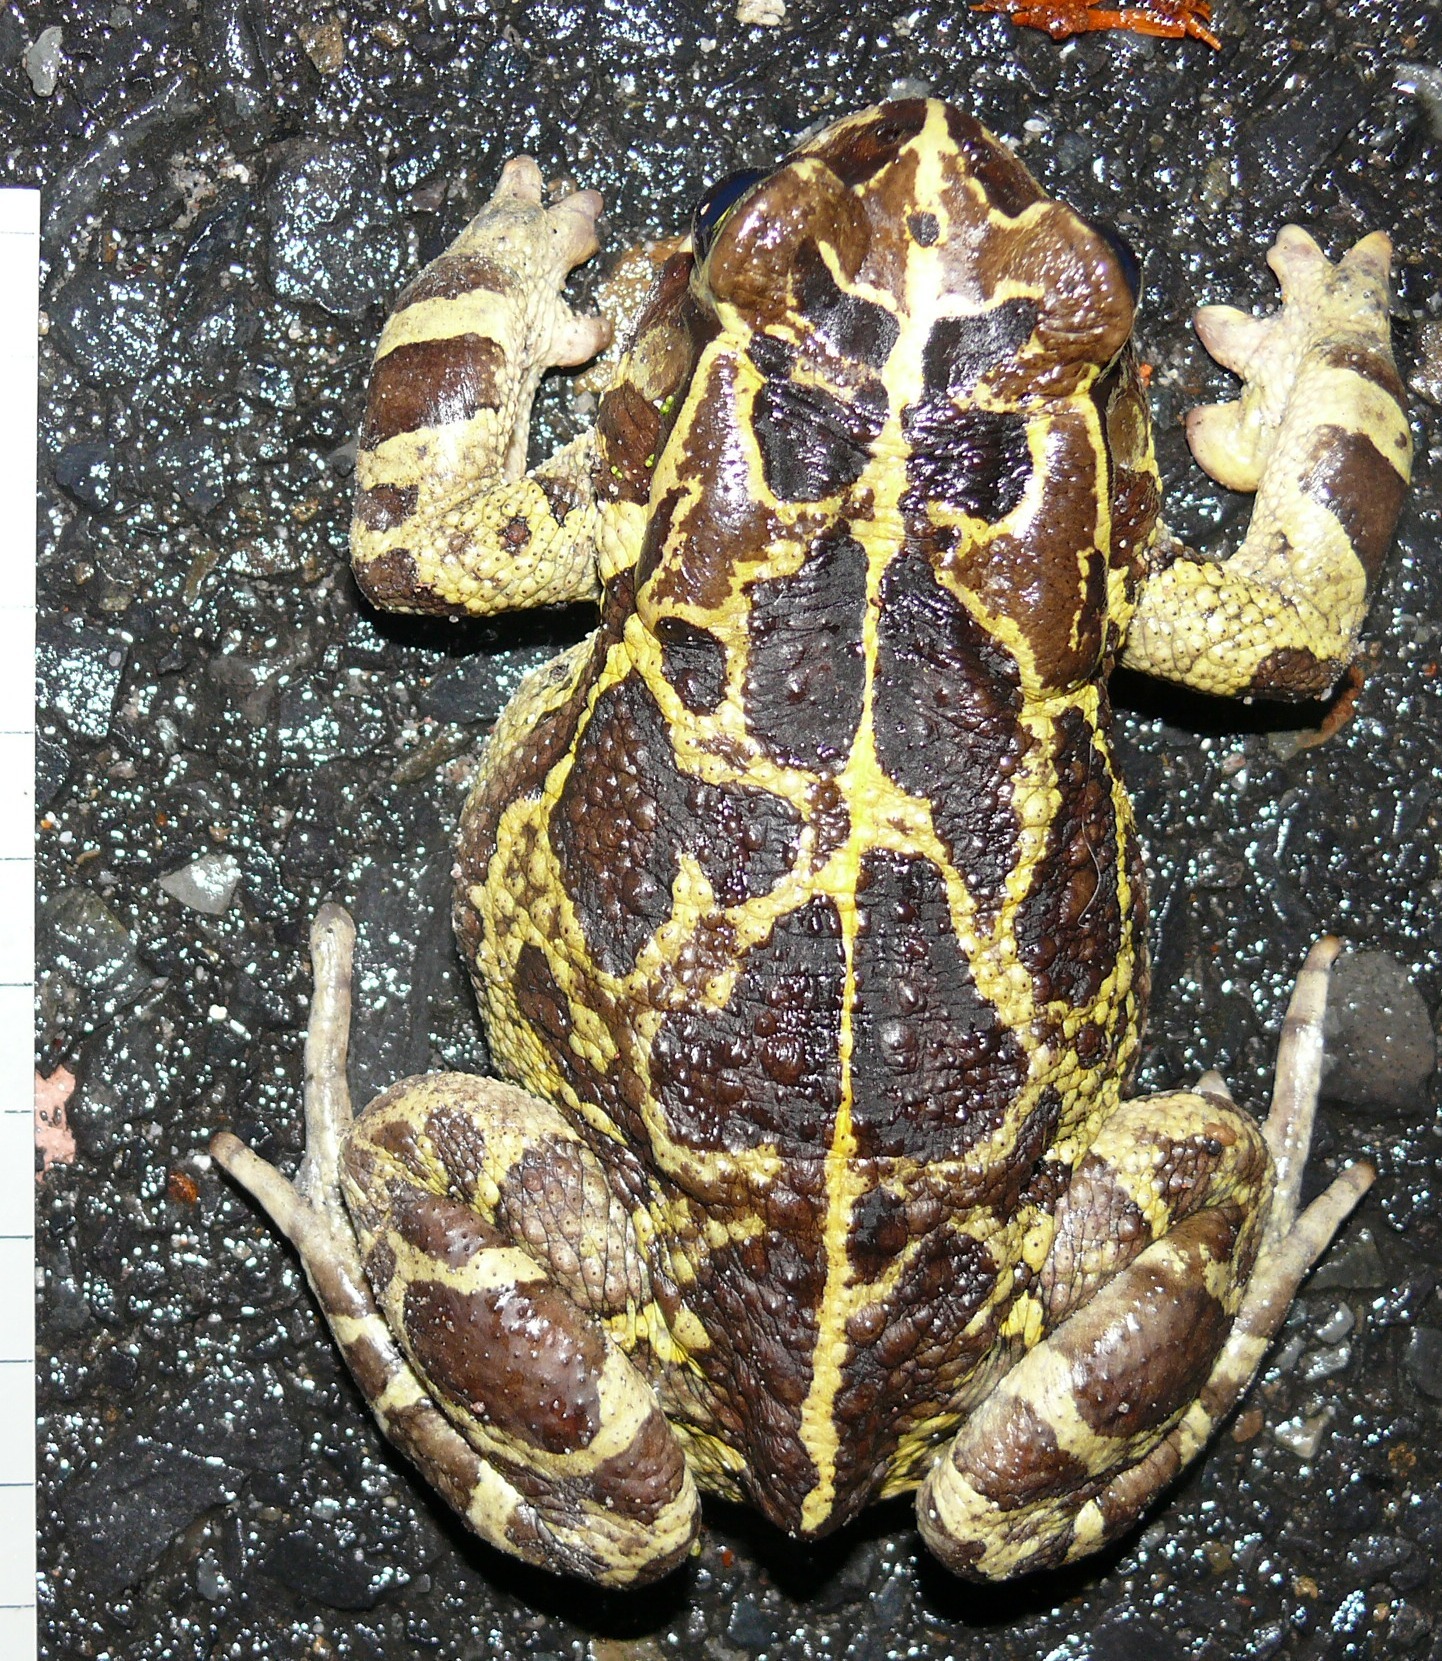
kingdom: Animalia
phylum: Chordata
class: Amphibia
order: Anura
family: Bufonidae
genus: Sclerophrys
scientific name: Sclerophrys pantherina
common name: Panther toad
